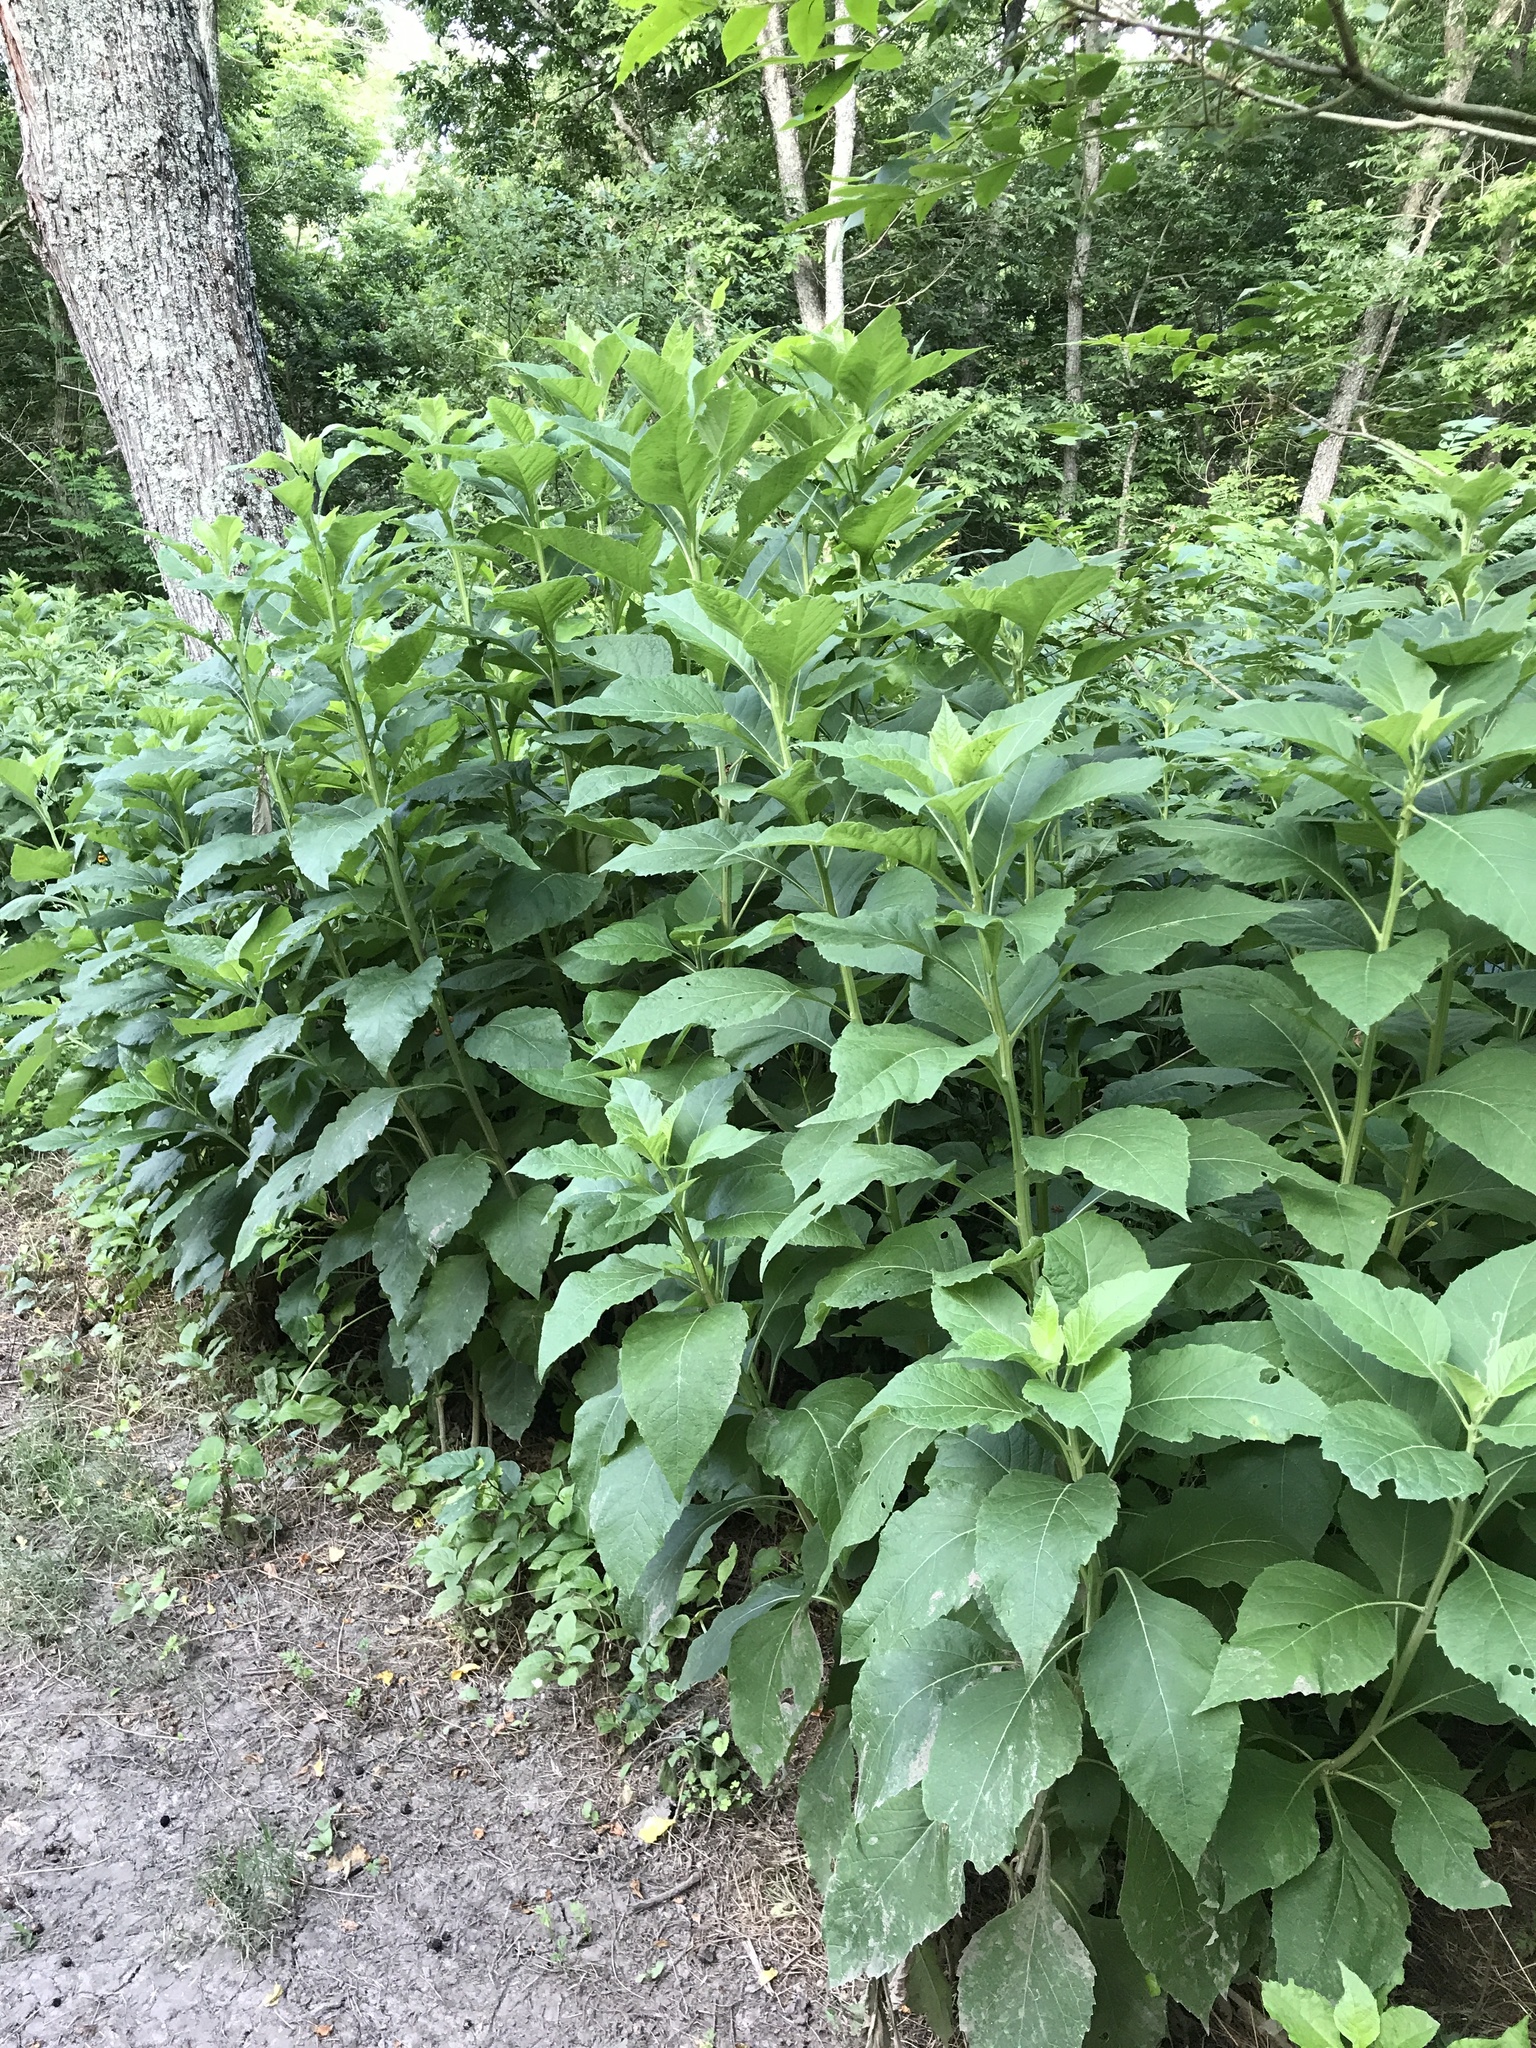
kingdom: Plantae
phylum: Tracheophyta
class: Magnoliopsida
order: Asterales
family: Asteraceae
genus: Verbesina
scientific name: Verbesina virginica
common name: Frostweed
